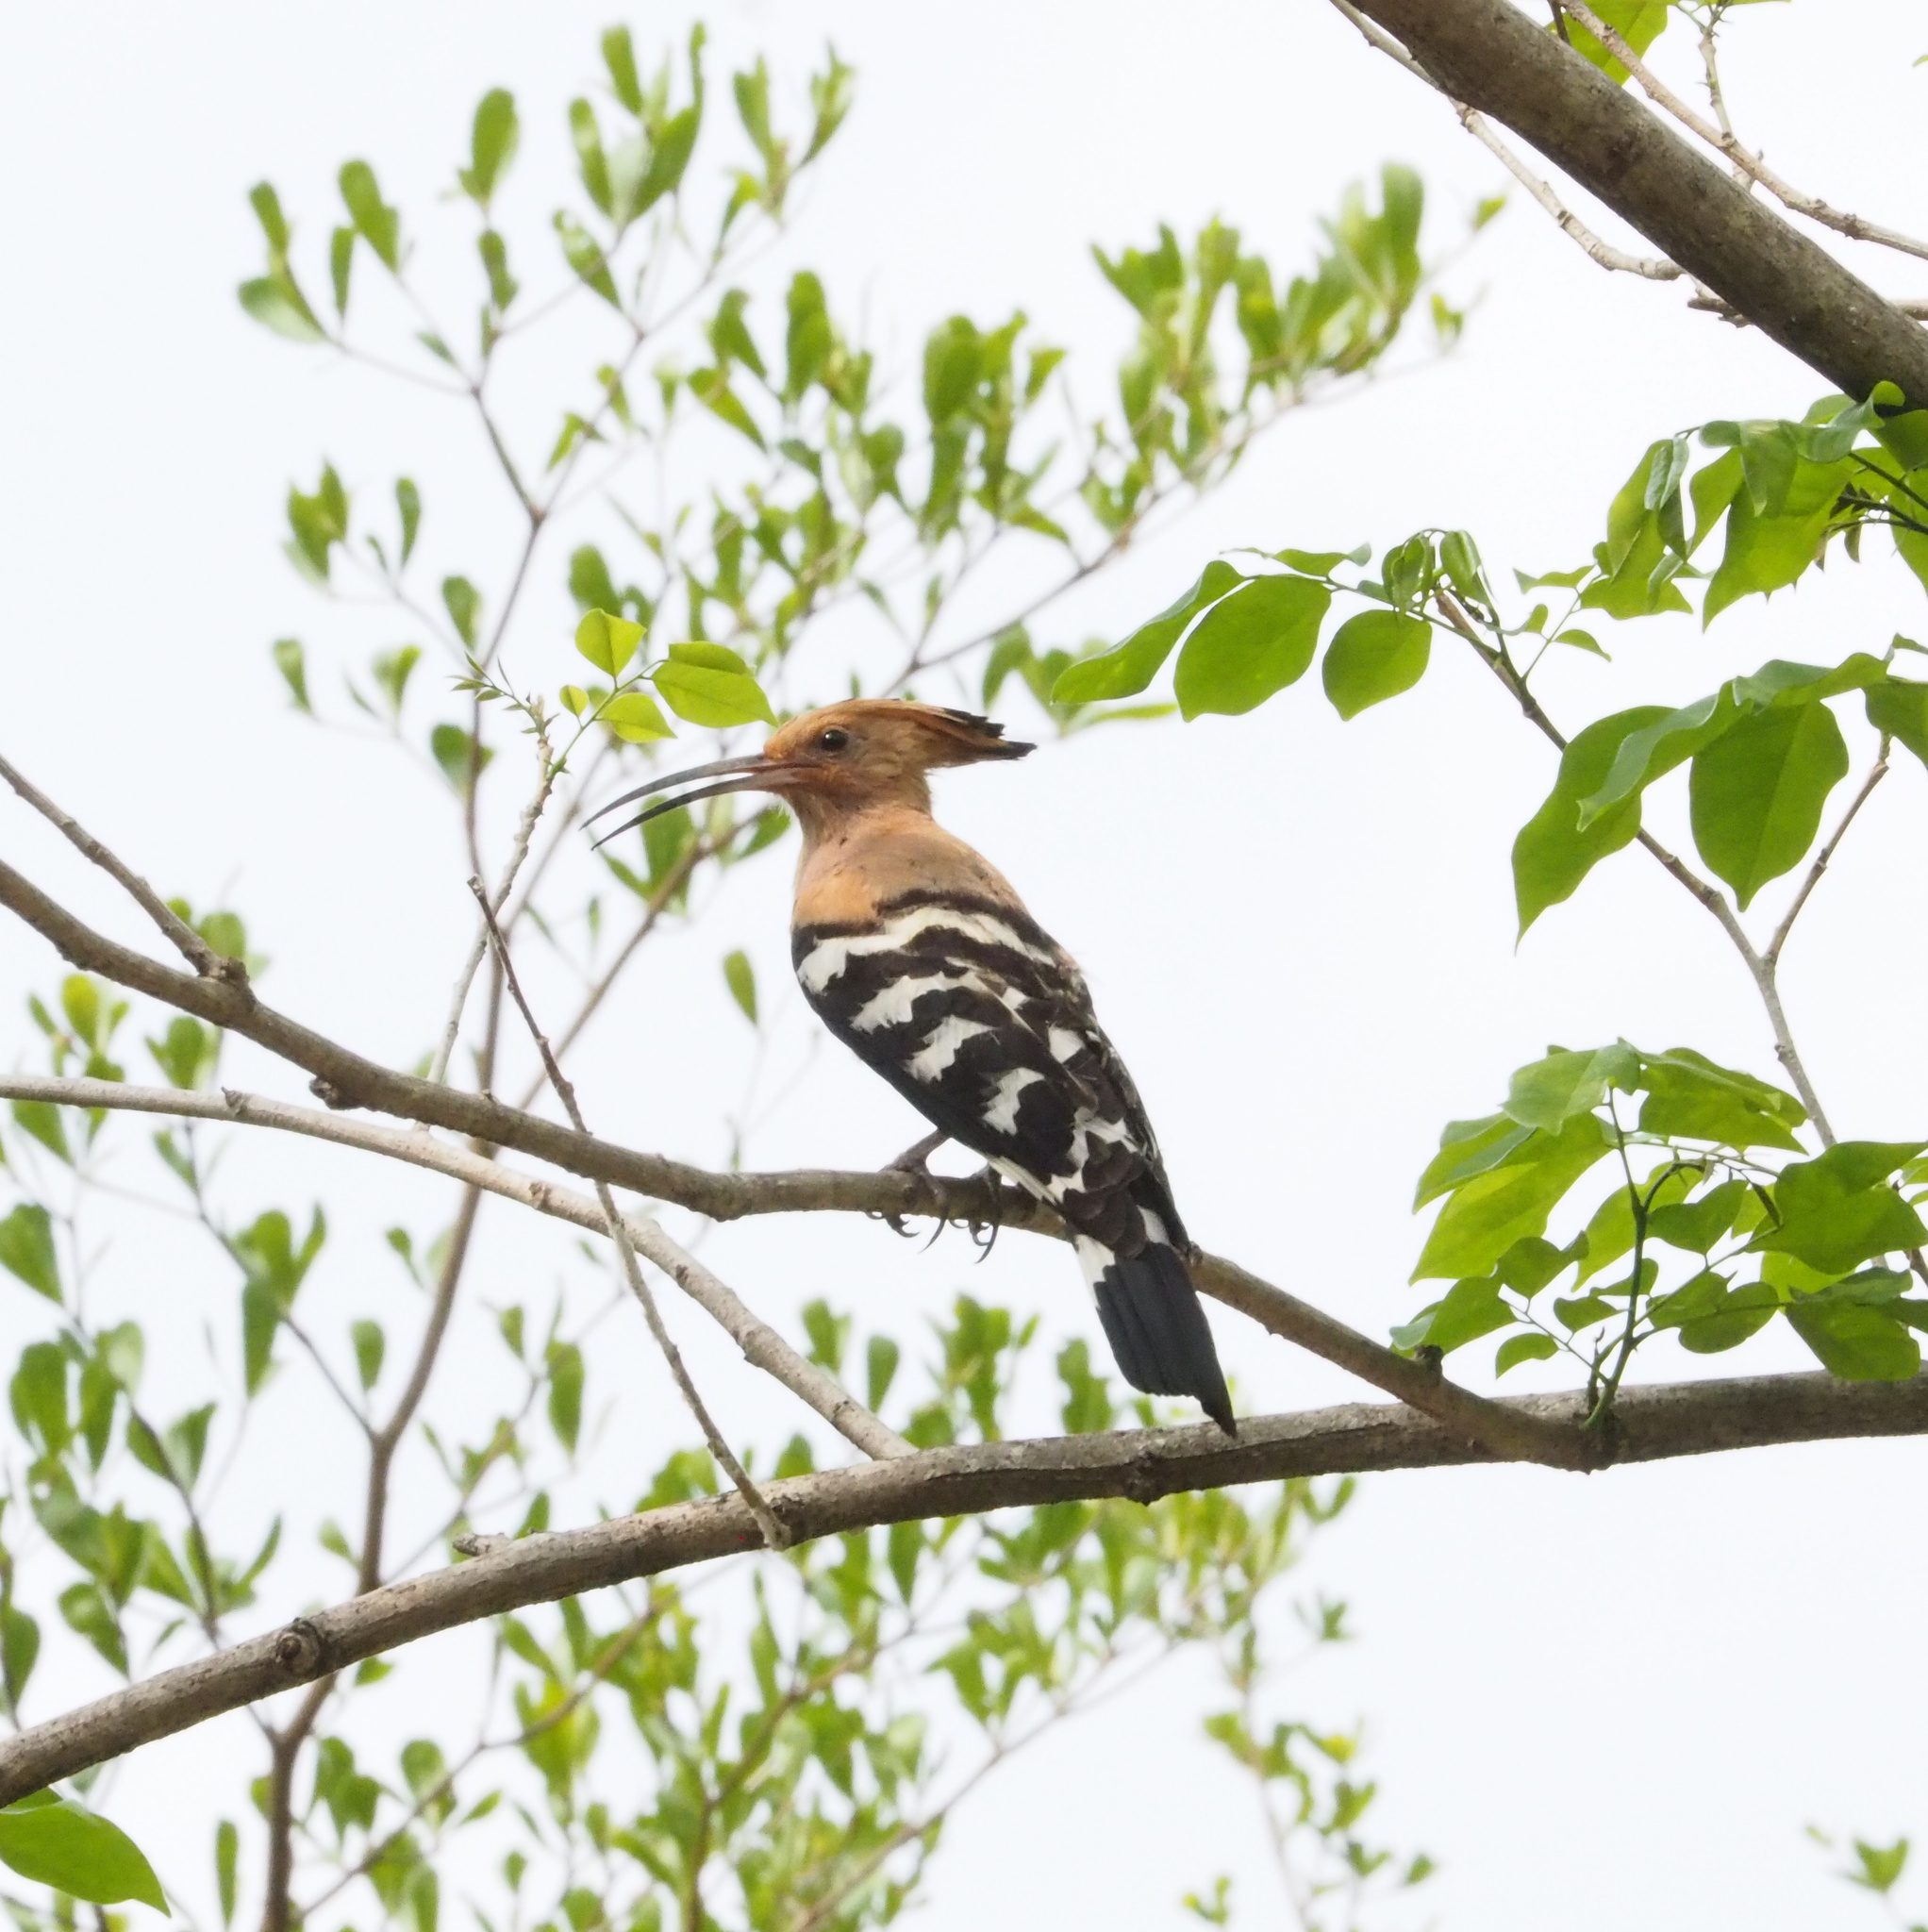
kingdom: Animalia
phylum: Chordata
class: Aves
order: Bucerotiformes
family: Upupidae
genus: Upupa
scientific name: Upupa epops
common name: Eurasian hoopoe
